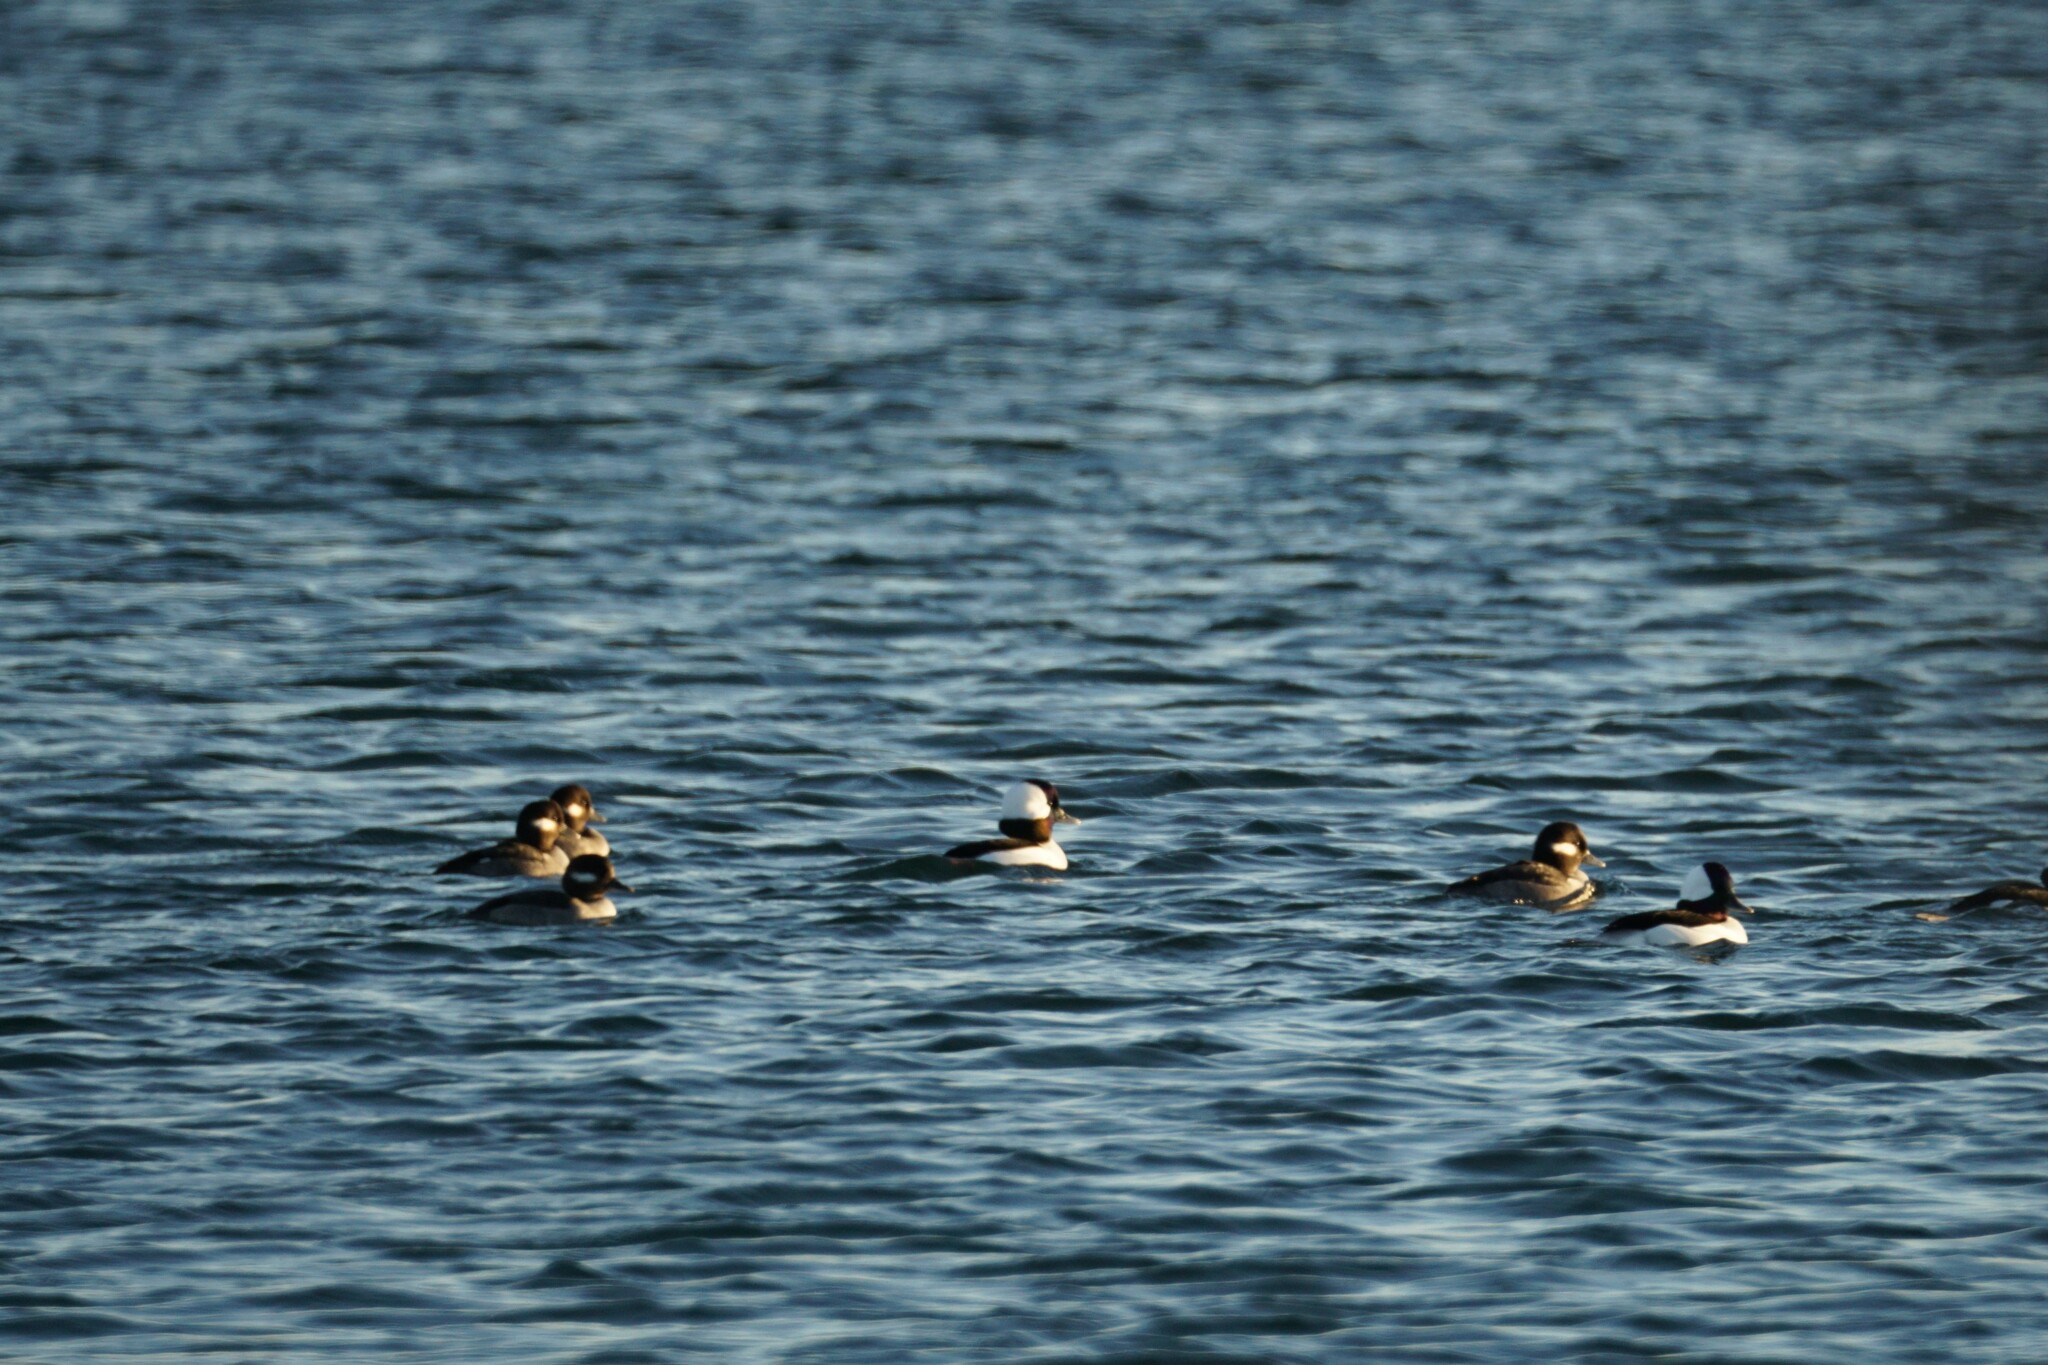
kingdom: Animalia
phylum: Chordata
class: Aves
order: Anseriformes
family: Anatidae
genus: Bucephala
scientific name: Bucephala albeola
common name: Bufflehead
